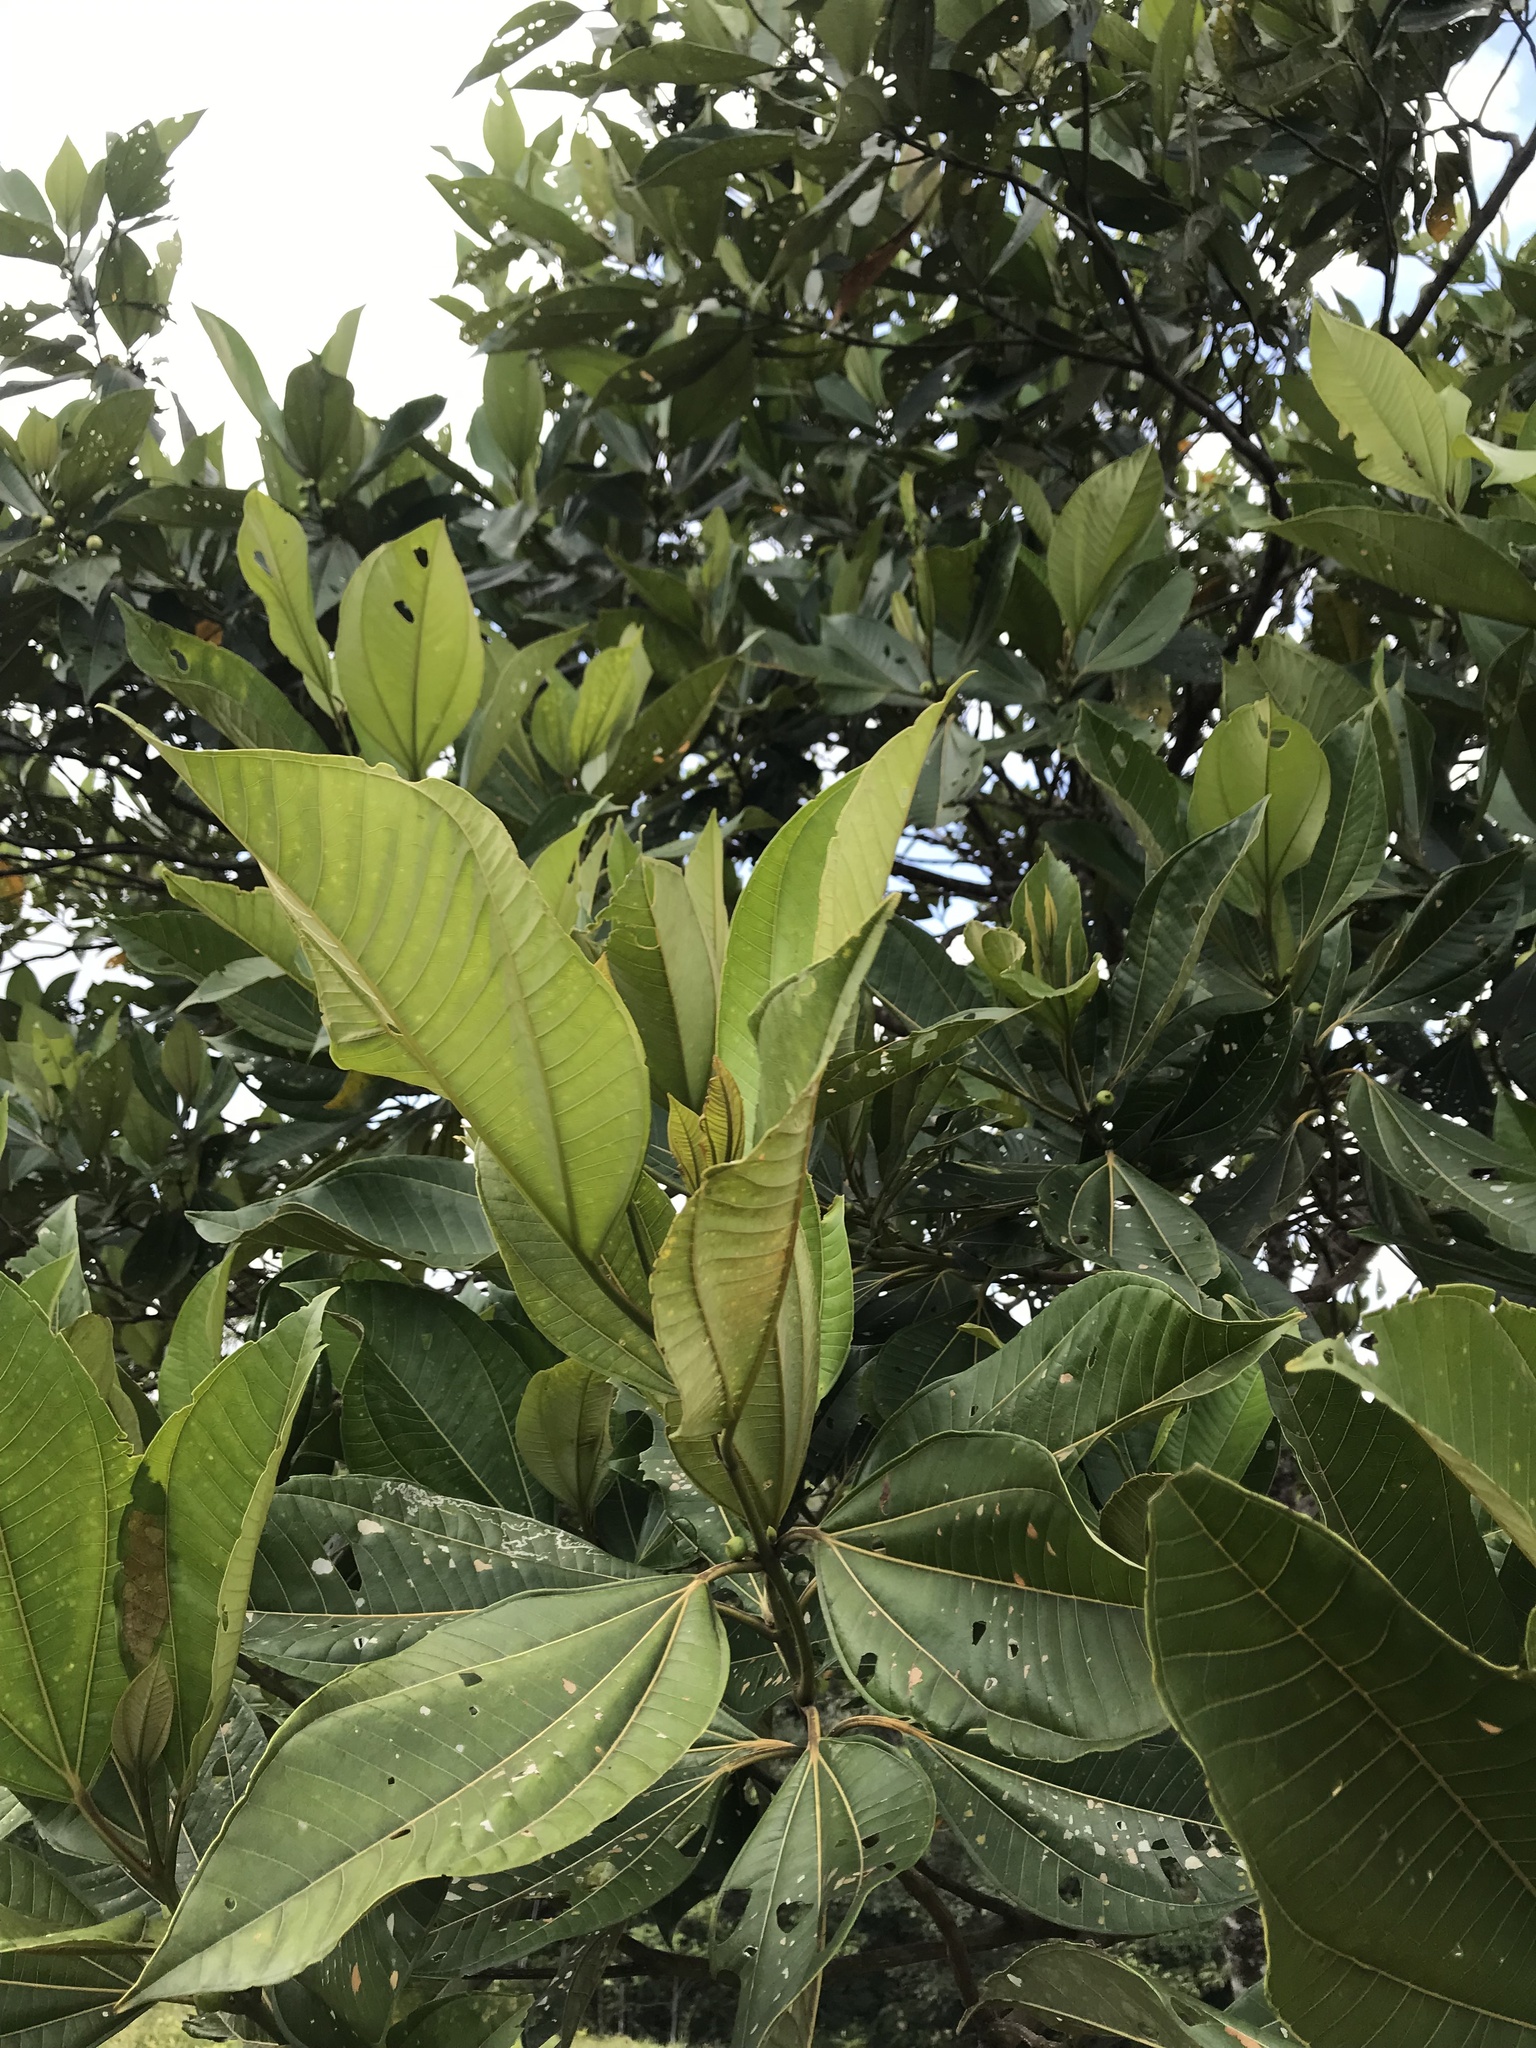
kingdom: Plantae
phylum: Tracheophyta
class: Magnoliopsida
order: Myrtales
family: Melastomataceae
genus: Bellucia
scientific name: Bellucia grossularioides
